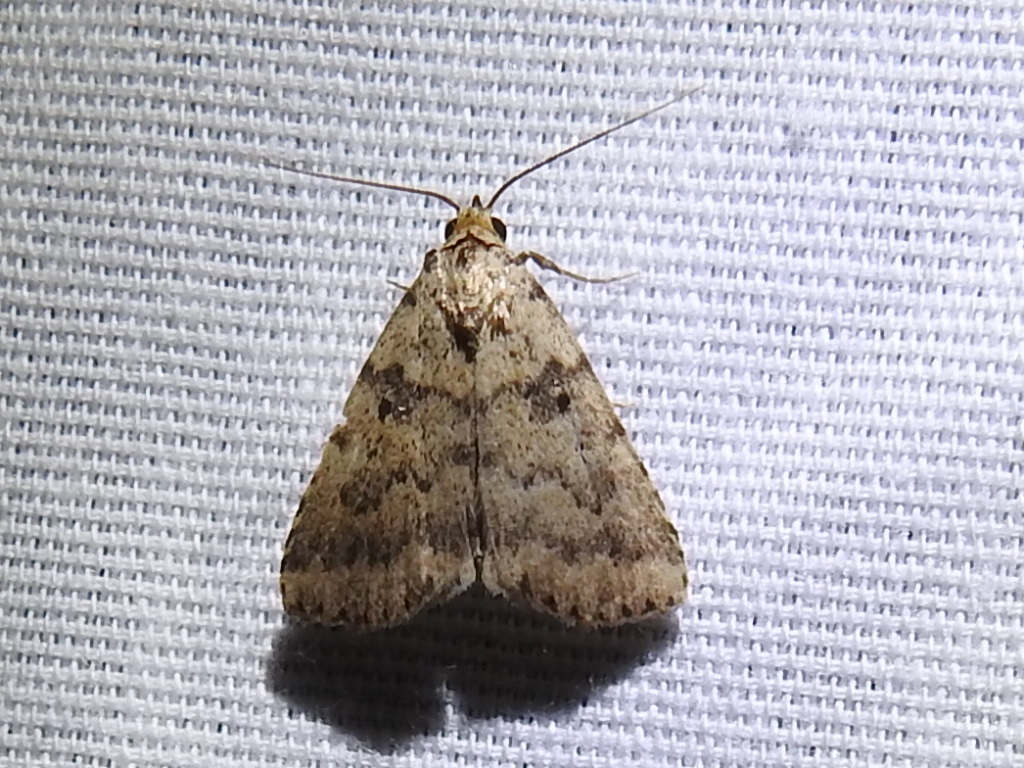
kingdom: Animalia
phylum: Arthropoda
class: Insecta
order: Lepidoptera
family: Erebidae
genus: Arugisa
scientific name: Arugisa lutea
